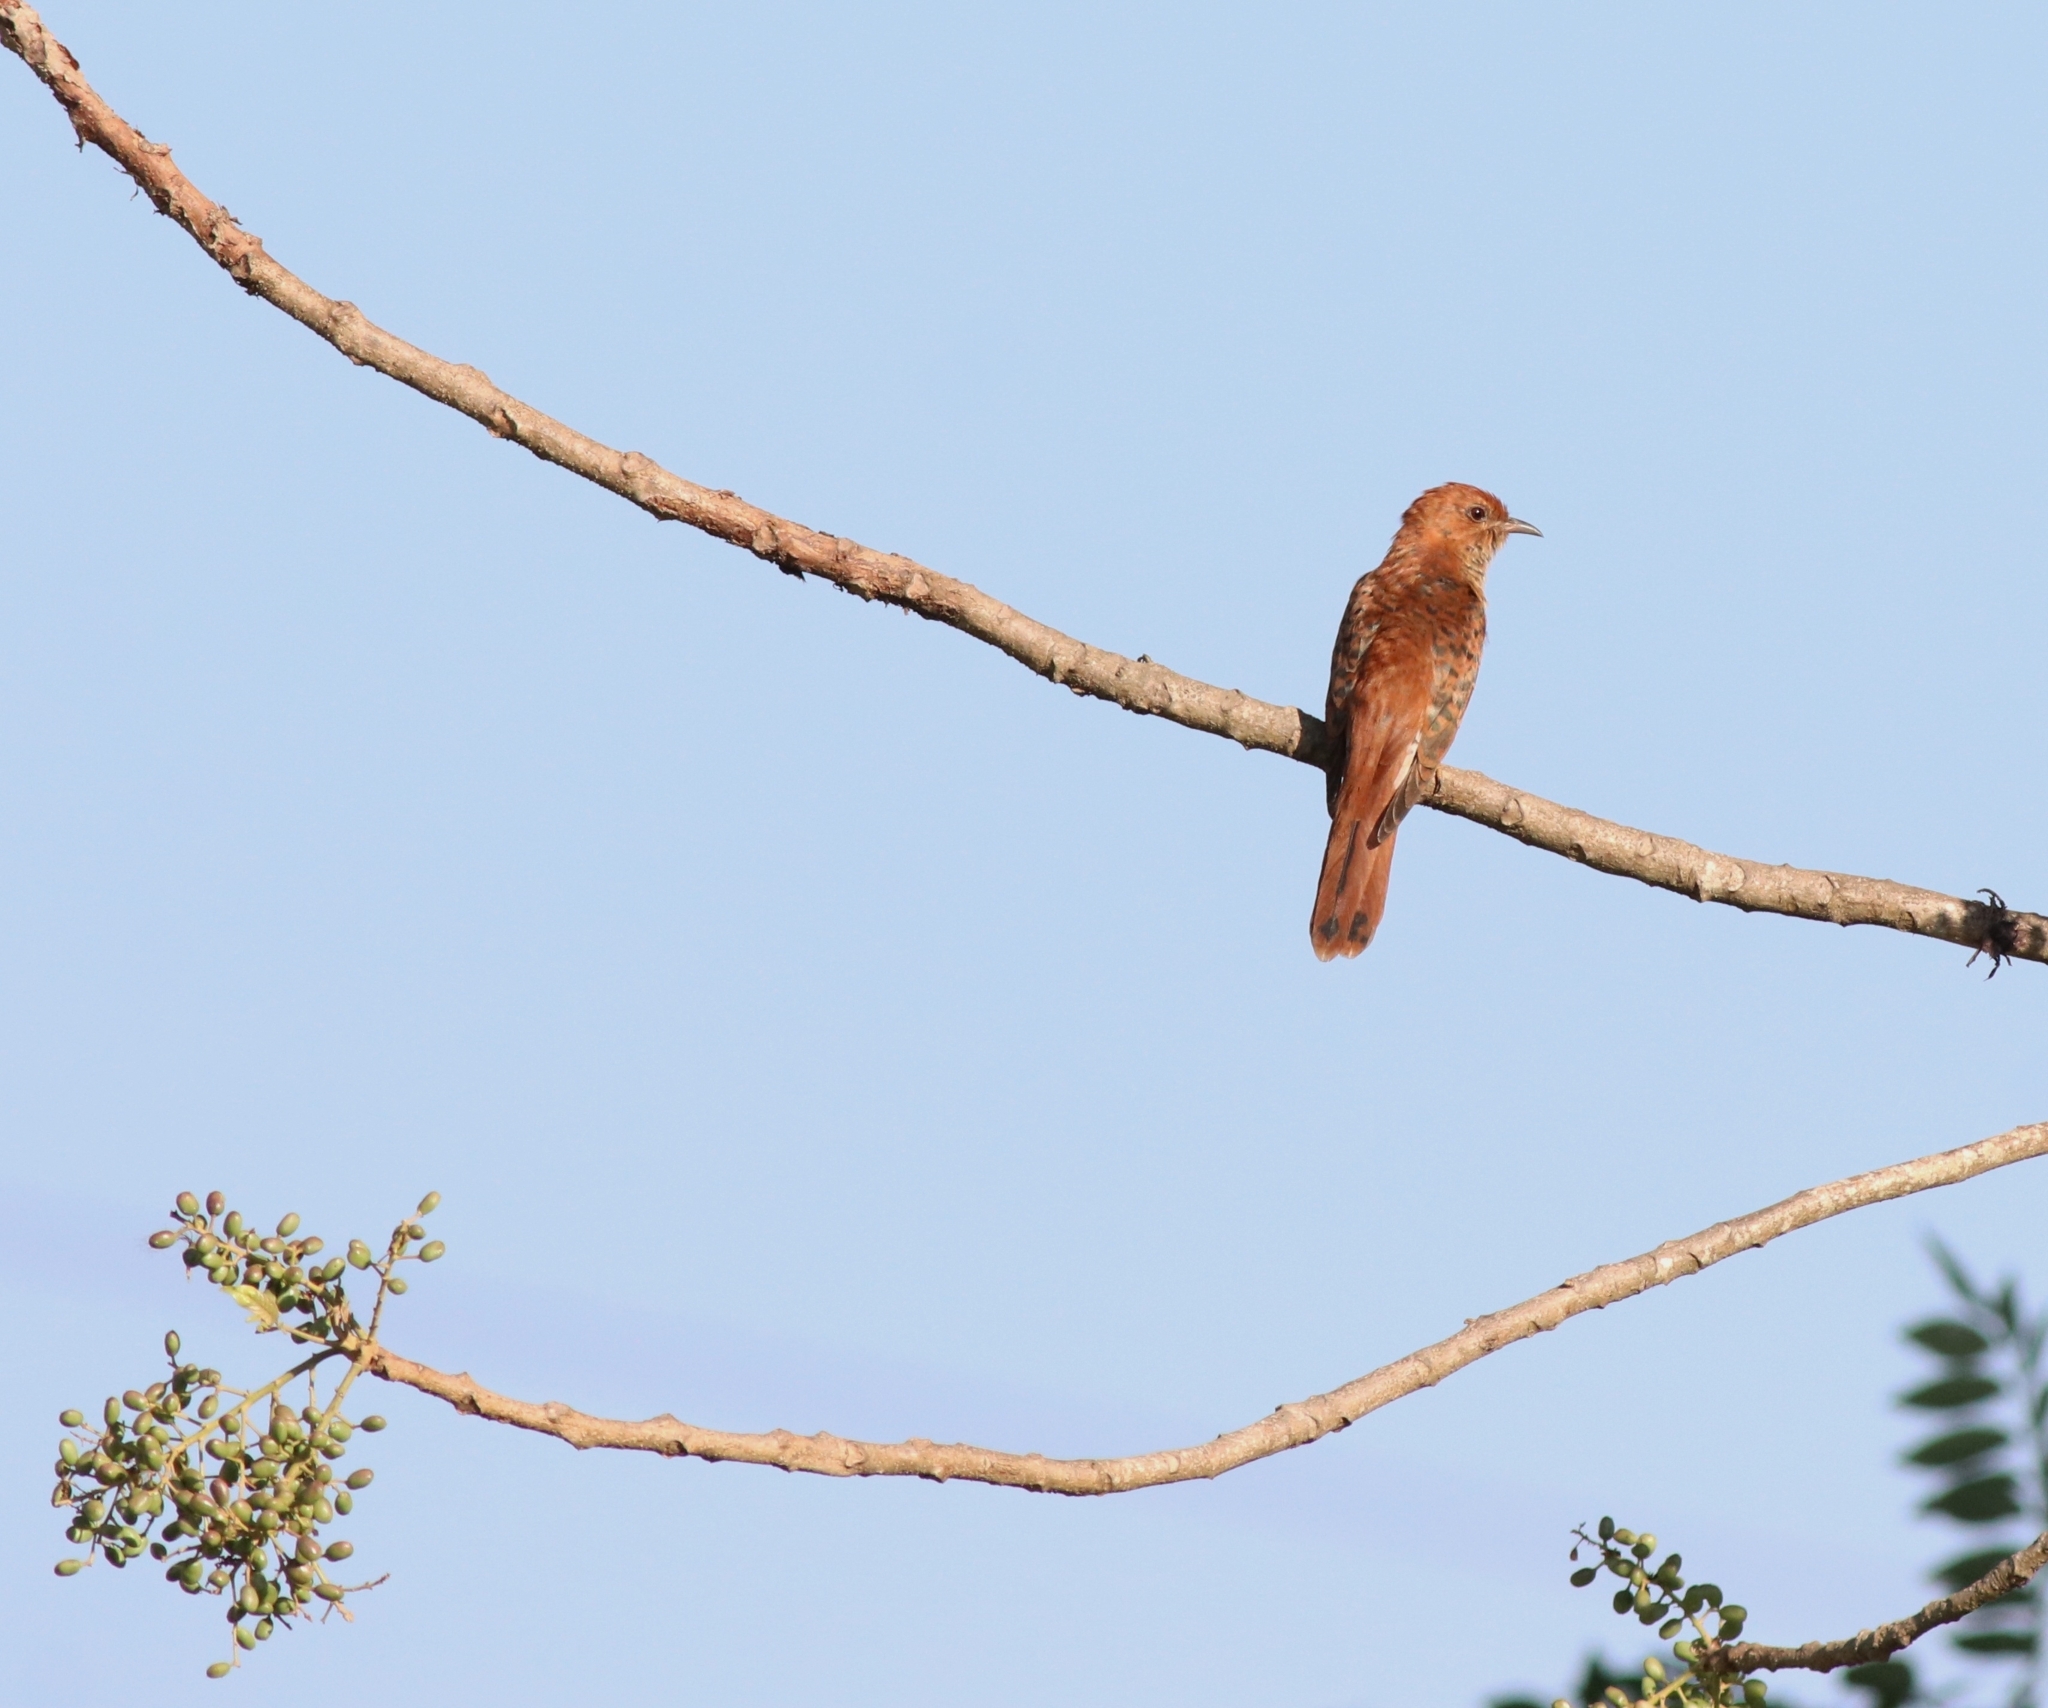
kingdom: Animalia
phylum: Chordata
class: Aves
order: Cuculiformes
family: Cuculidae
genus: Cacomantis
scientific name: Cacomantis passerinus
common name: Grey-bellied cuckoo
